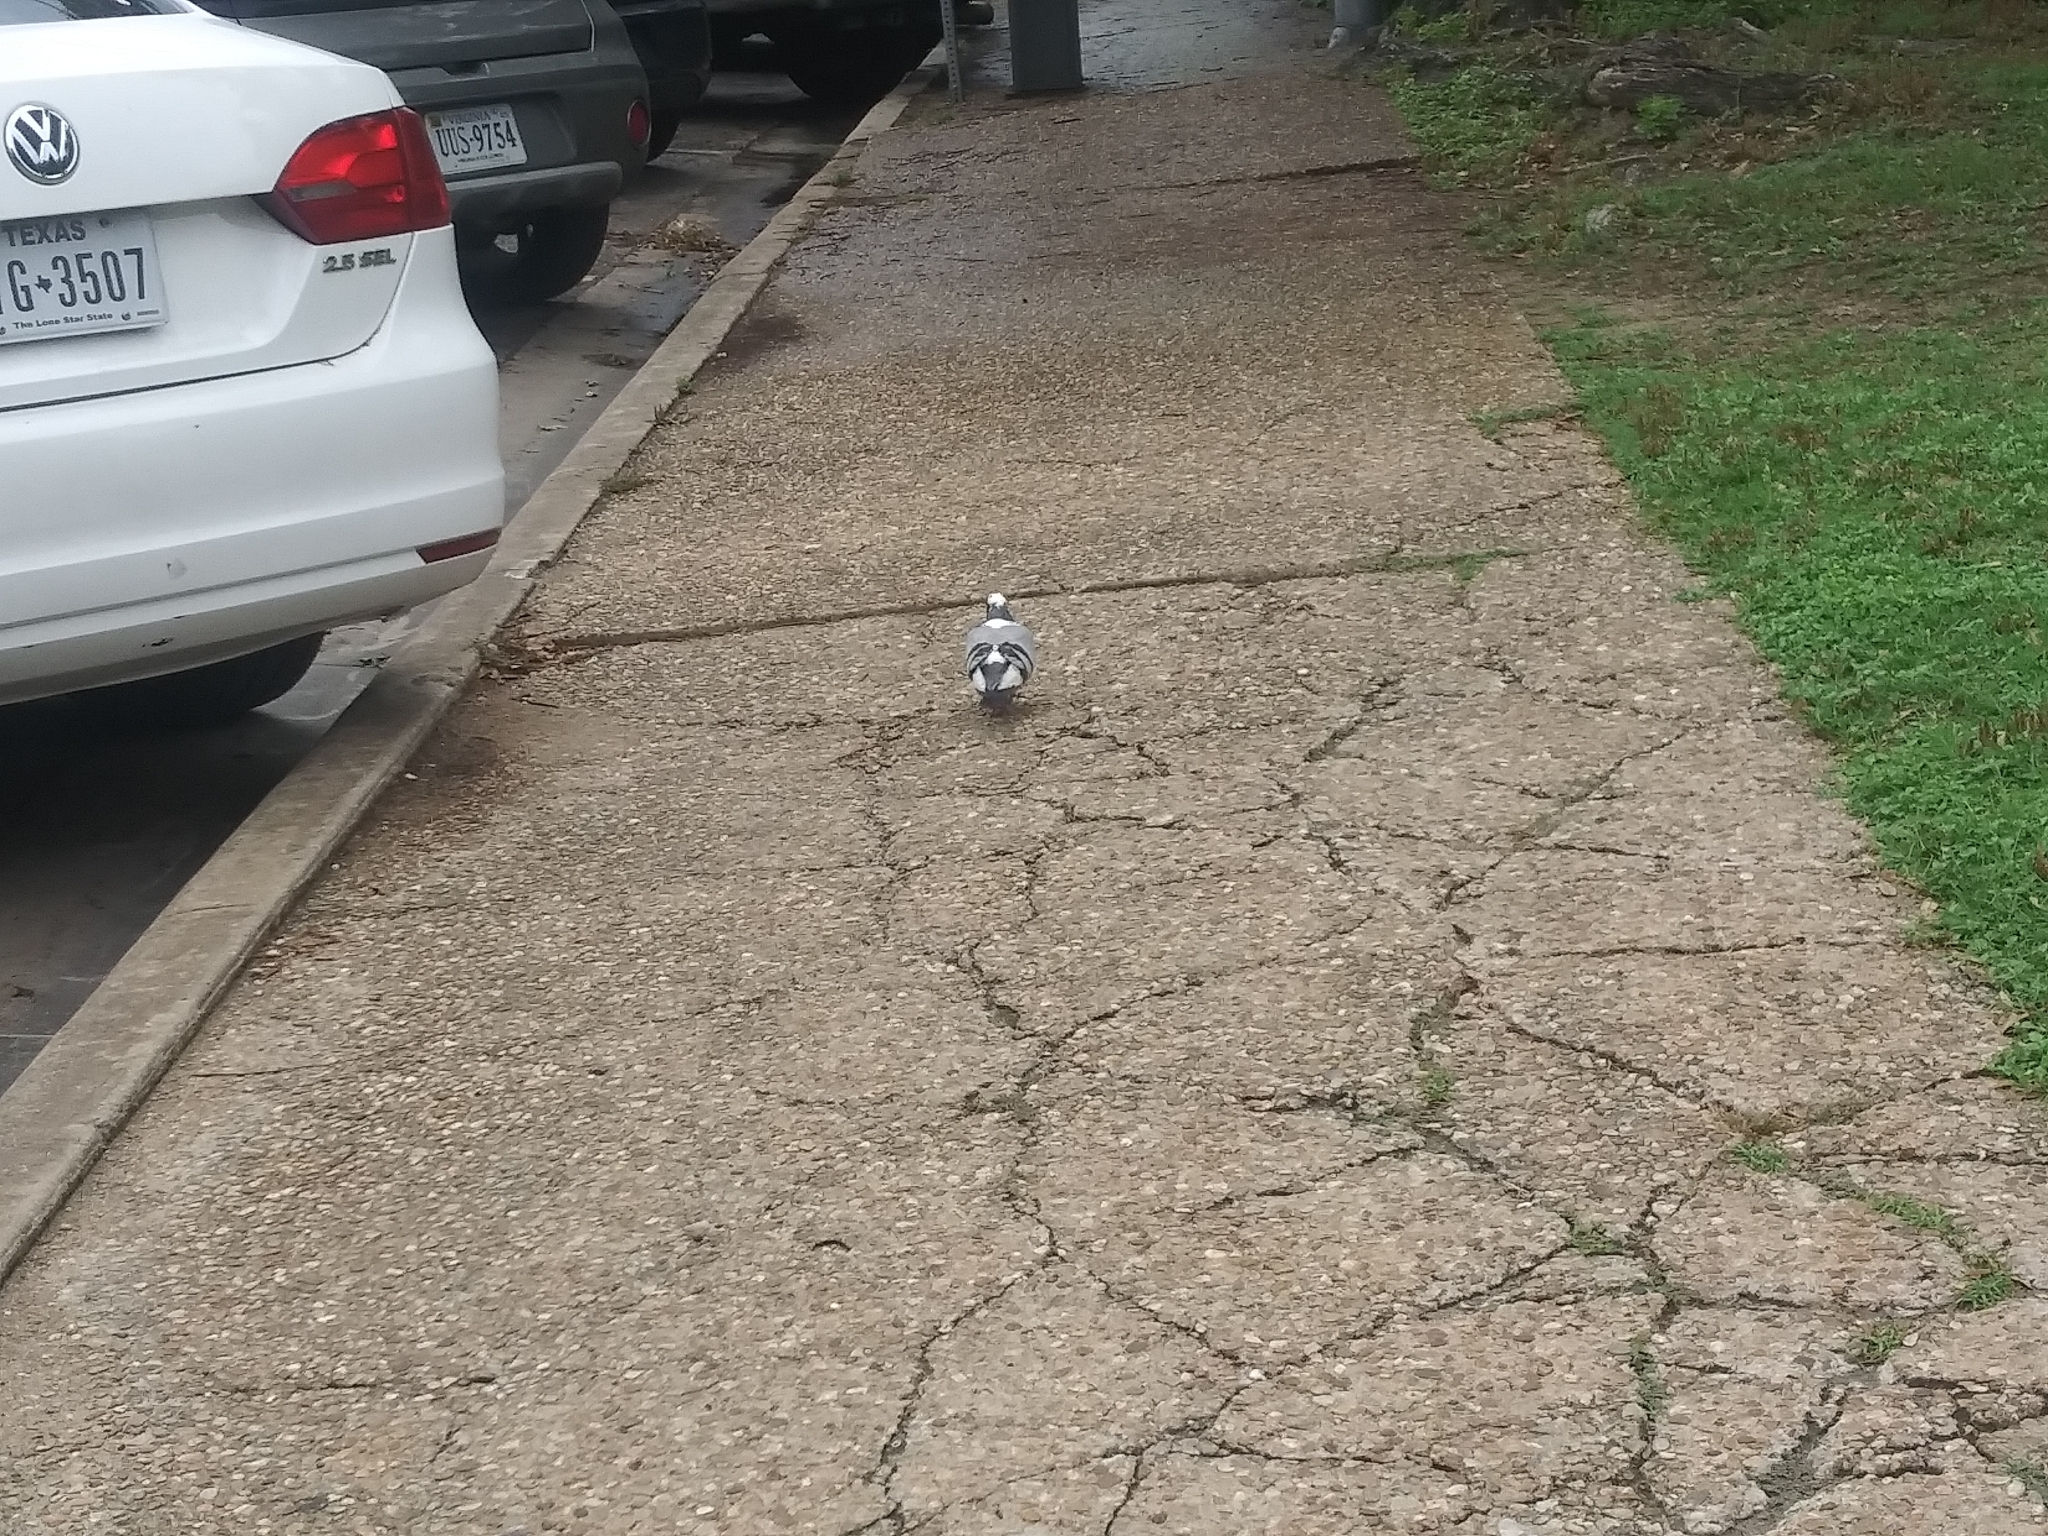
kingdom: Animalia
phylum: Chordata
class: Aves
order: Columbiformes
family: Columbidae
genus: Columba
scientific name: Columba livia
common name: Rock pigeon
